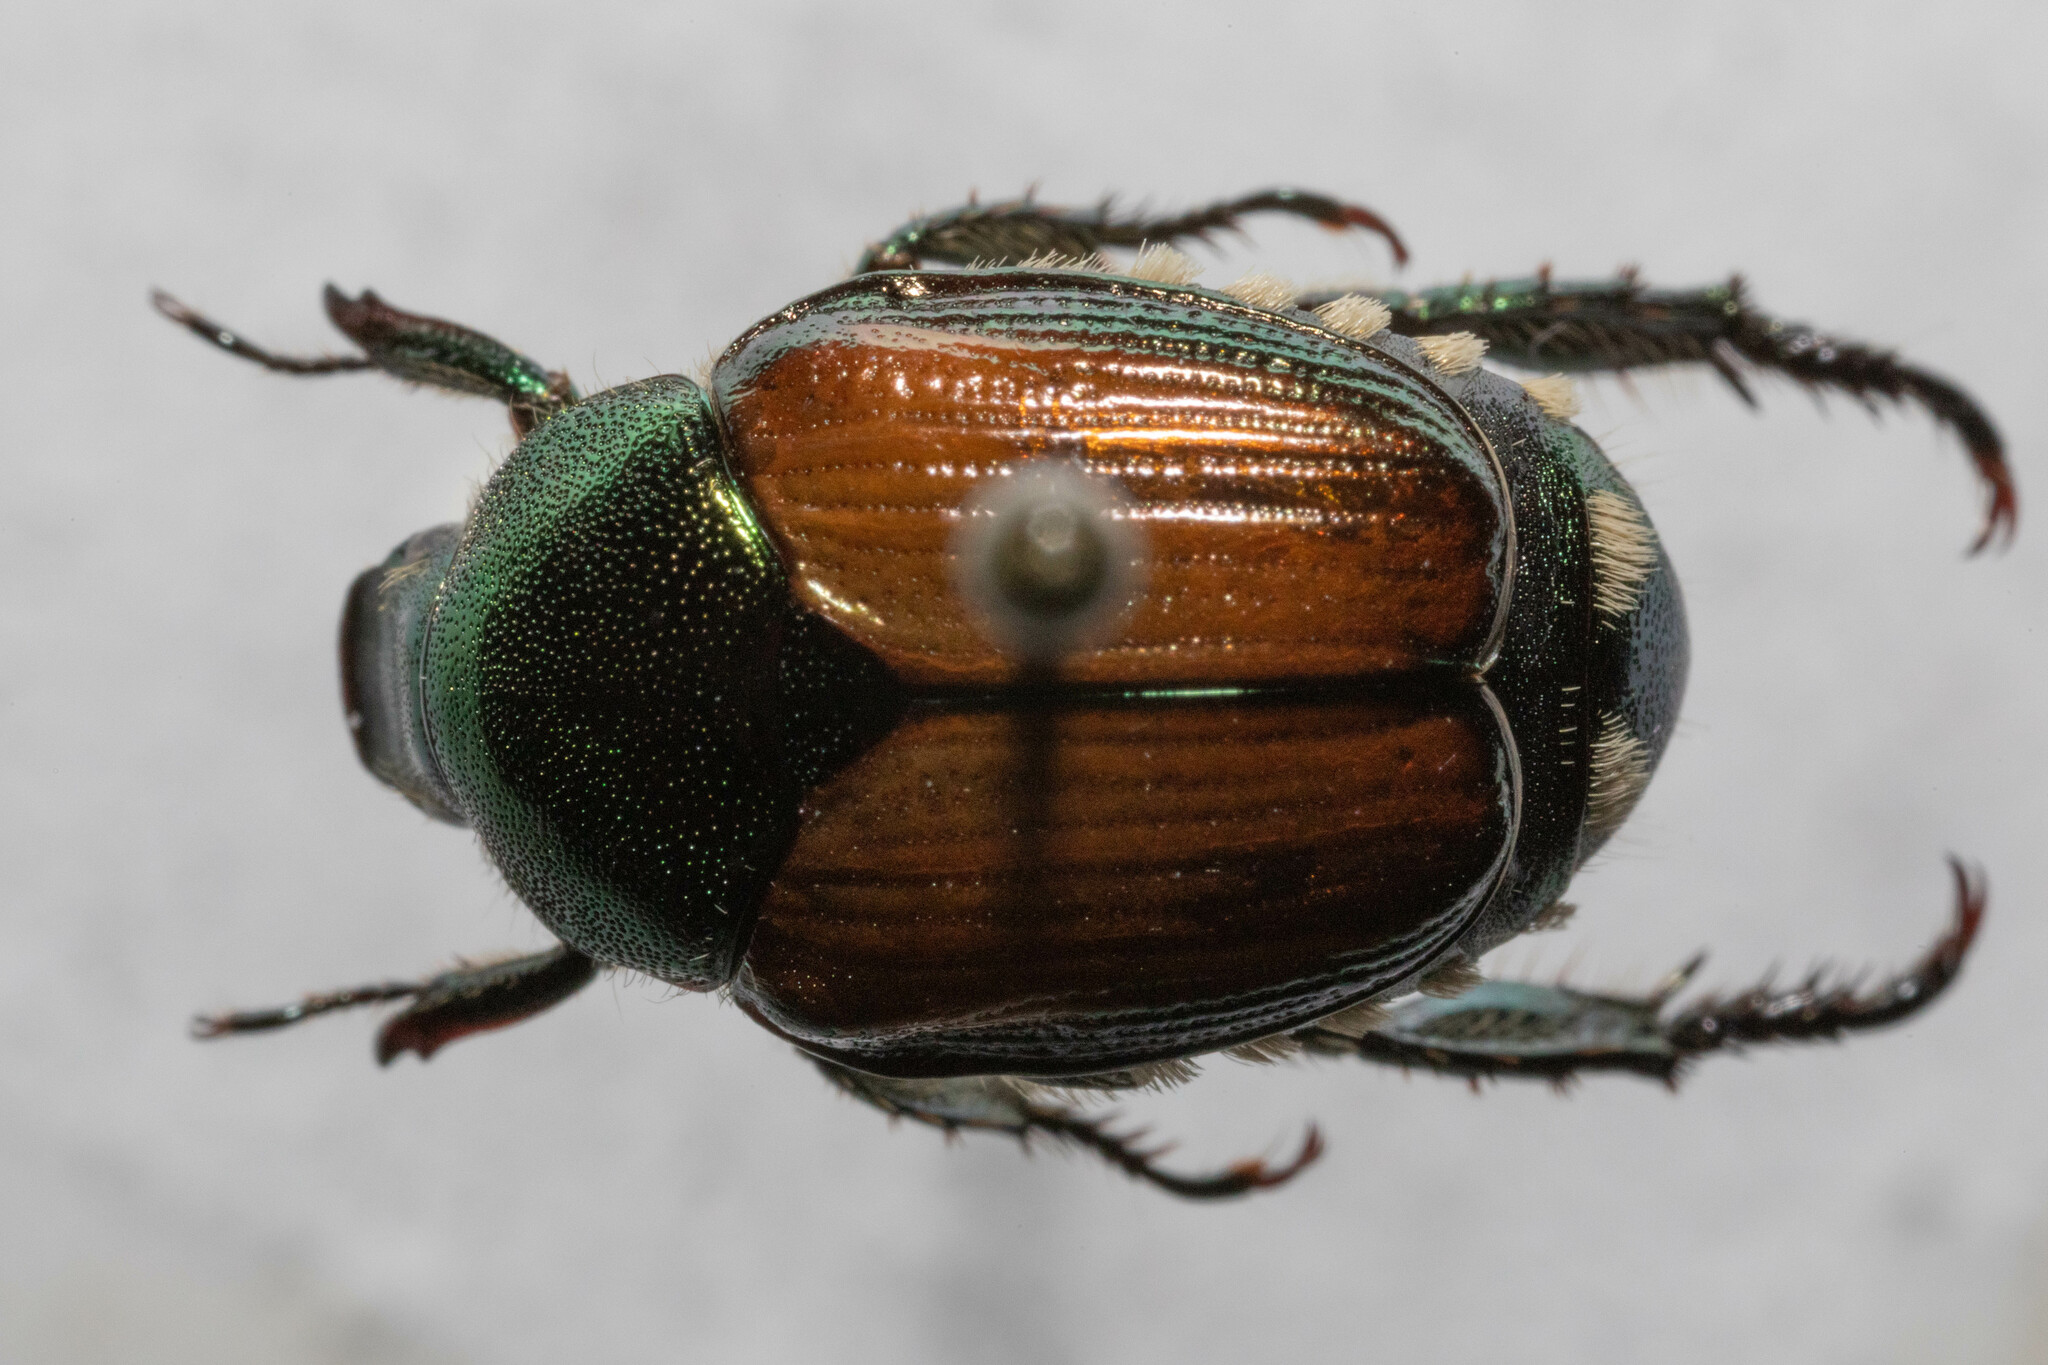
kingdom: Animalia
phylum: Arthropoda
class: Insecta
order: Coleoptera
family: Scarabaeidae
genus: Popillia
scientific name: Popillia japonica
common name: Japanese beetle
